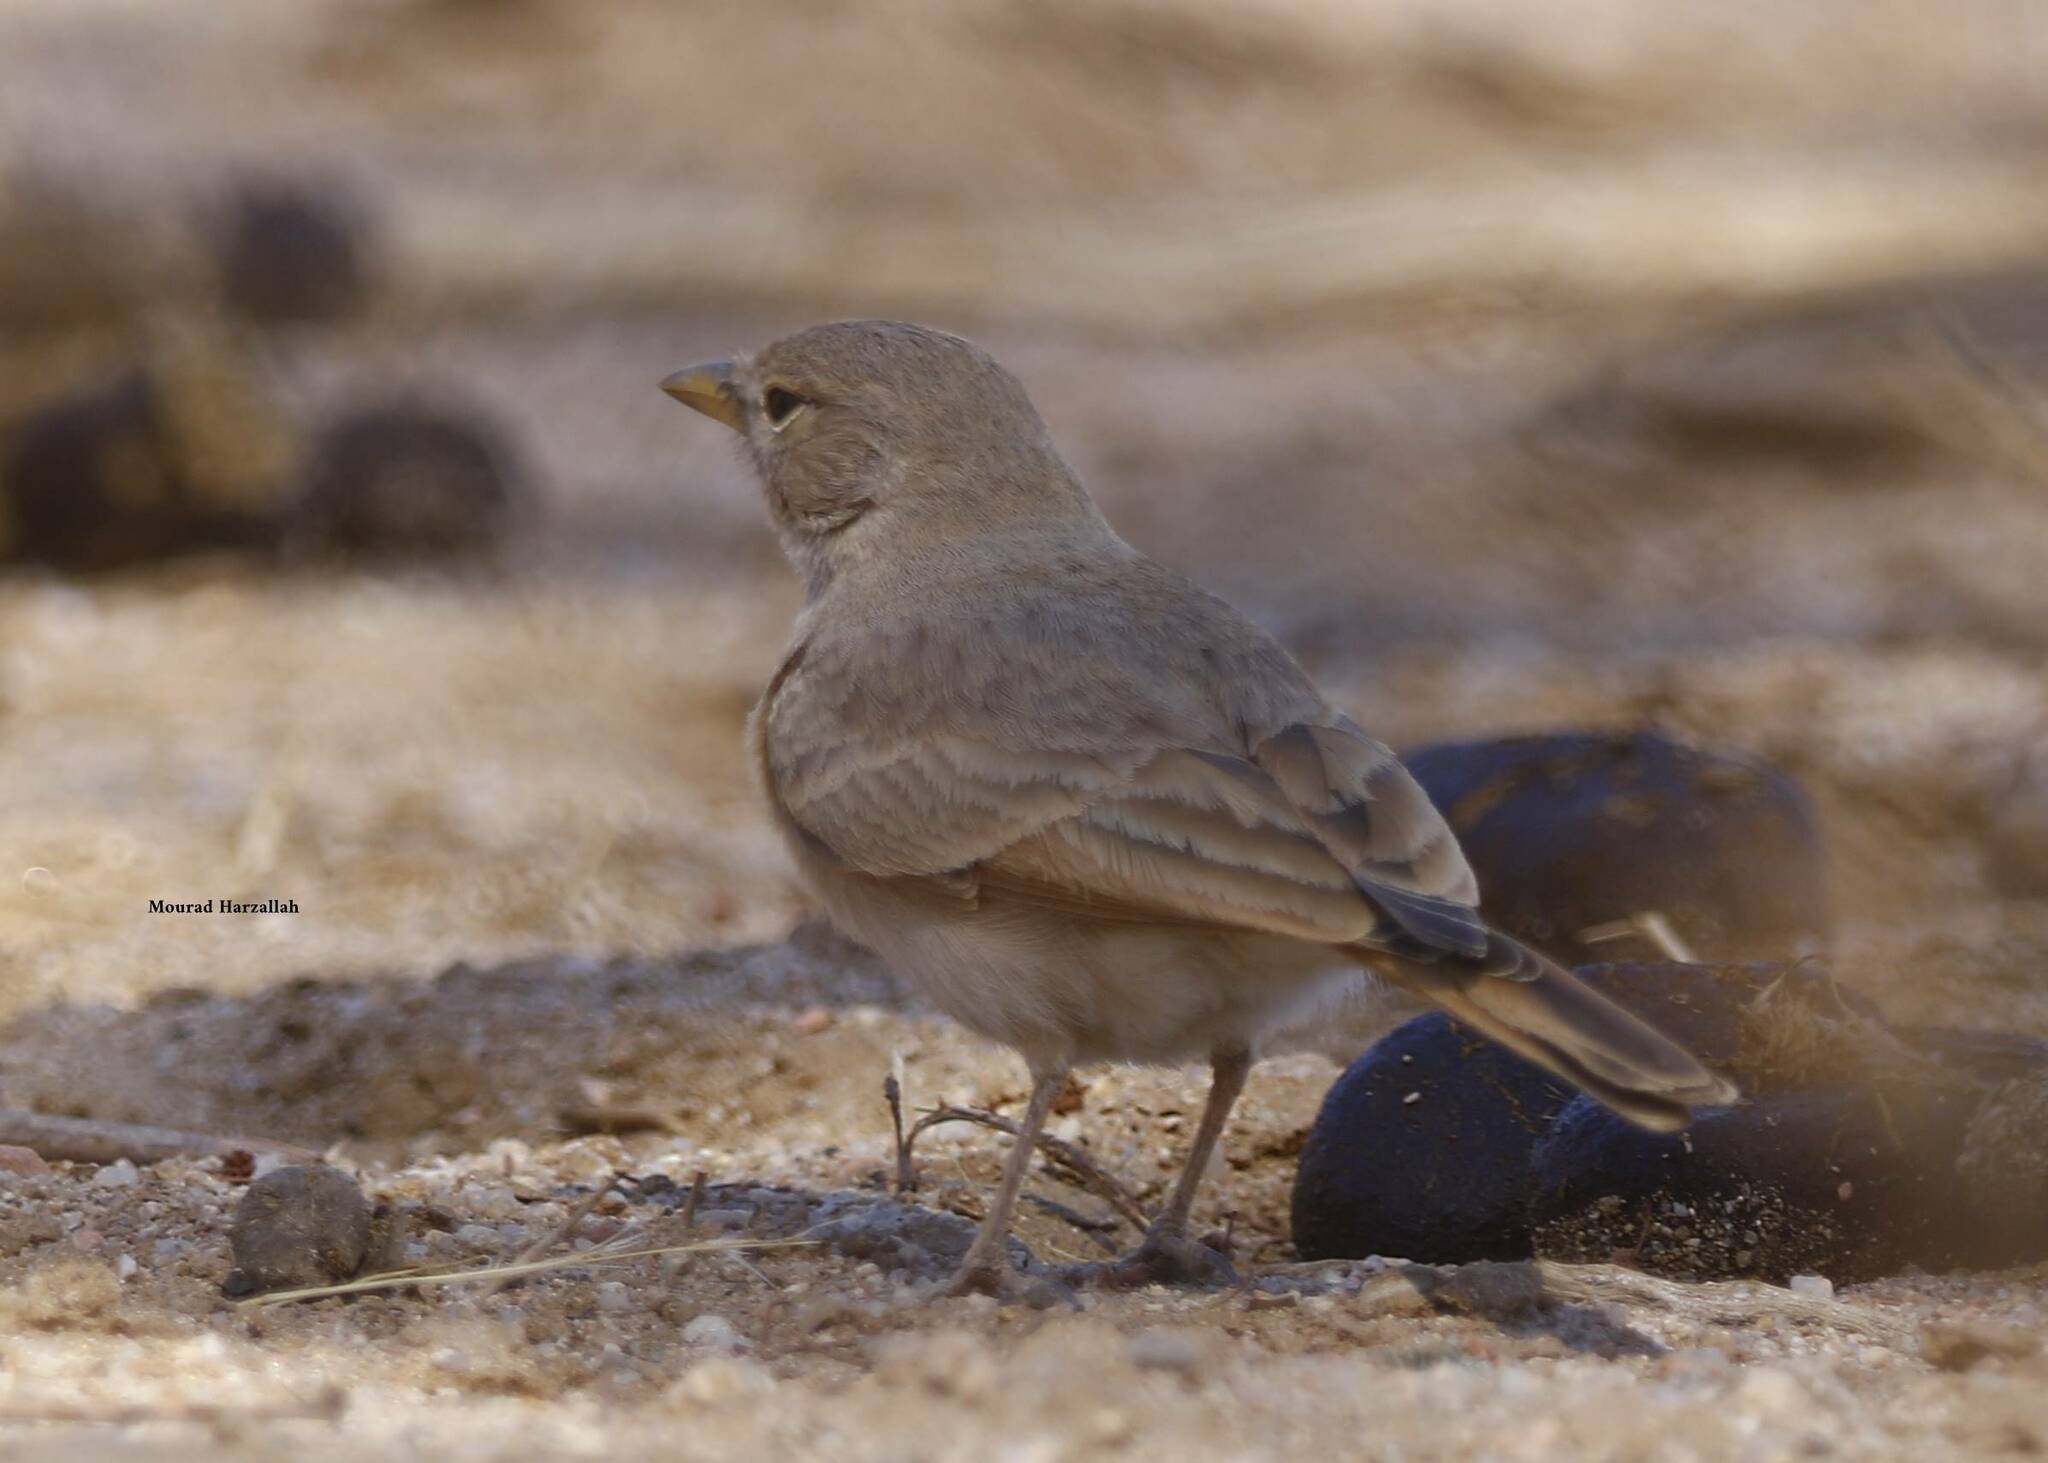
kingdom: Animalia
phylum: Chordata
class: Aves
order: Passeriformes
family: Alaudidae
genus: Ammomanes
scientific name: Ammomanes deserti
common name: Desert lark
